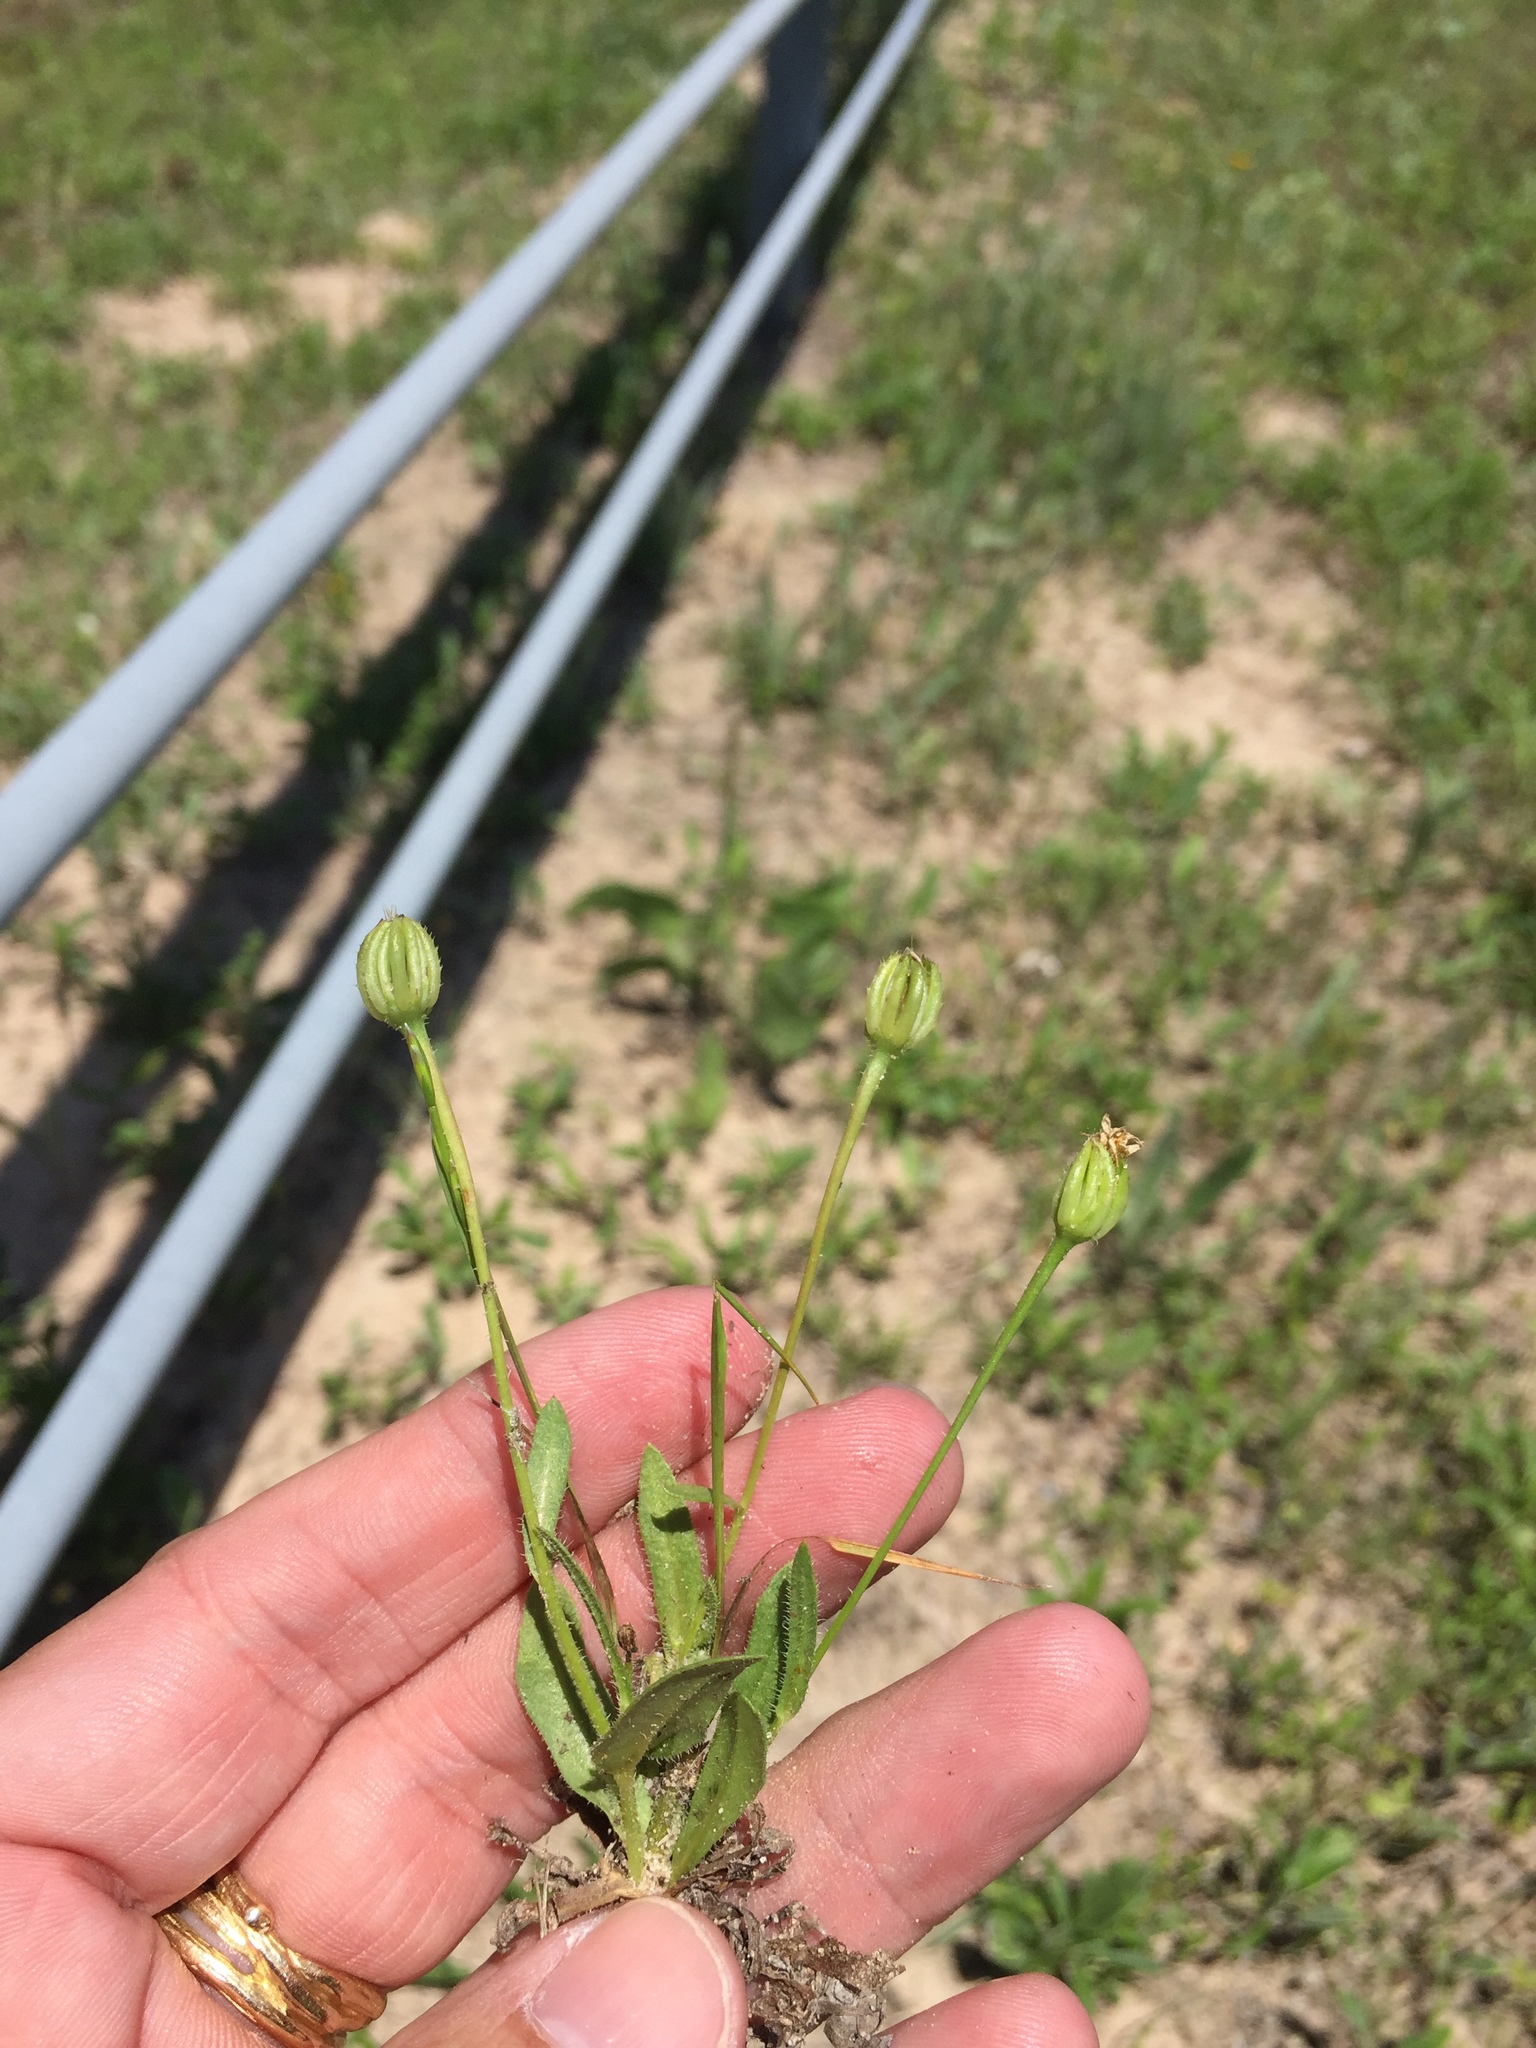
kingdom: Plantae
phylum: Tracheophyta
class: Magnoliopsida
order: Asterales
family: Asteraceae
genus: Hedypnois
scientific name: Hedypnois rhagadioloides
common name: Cretan weed
